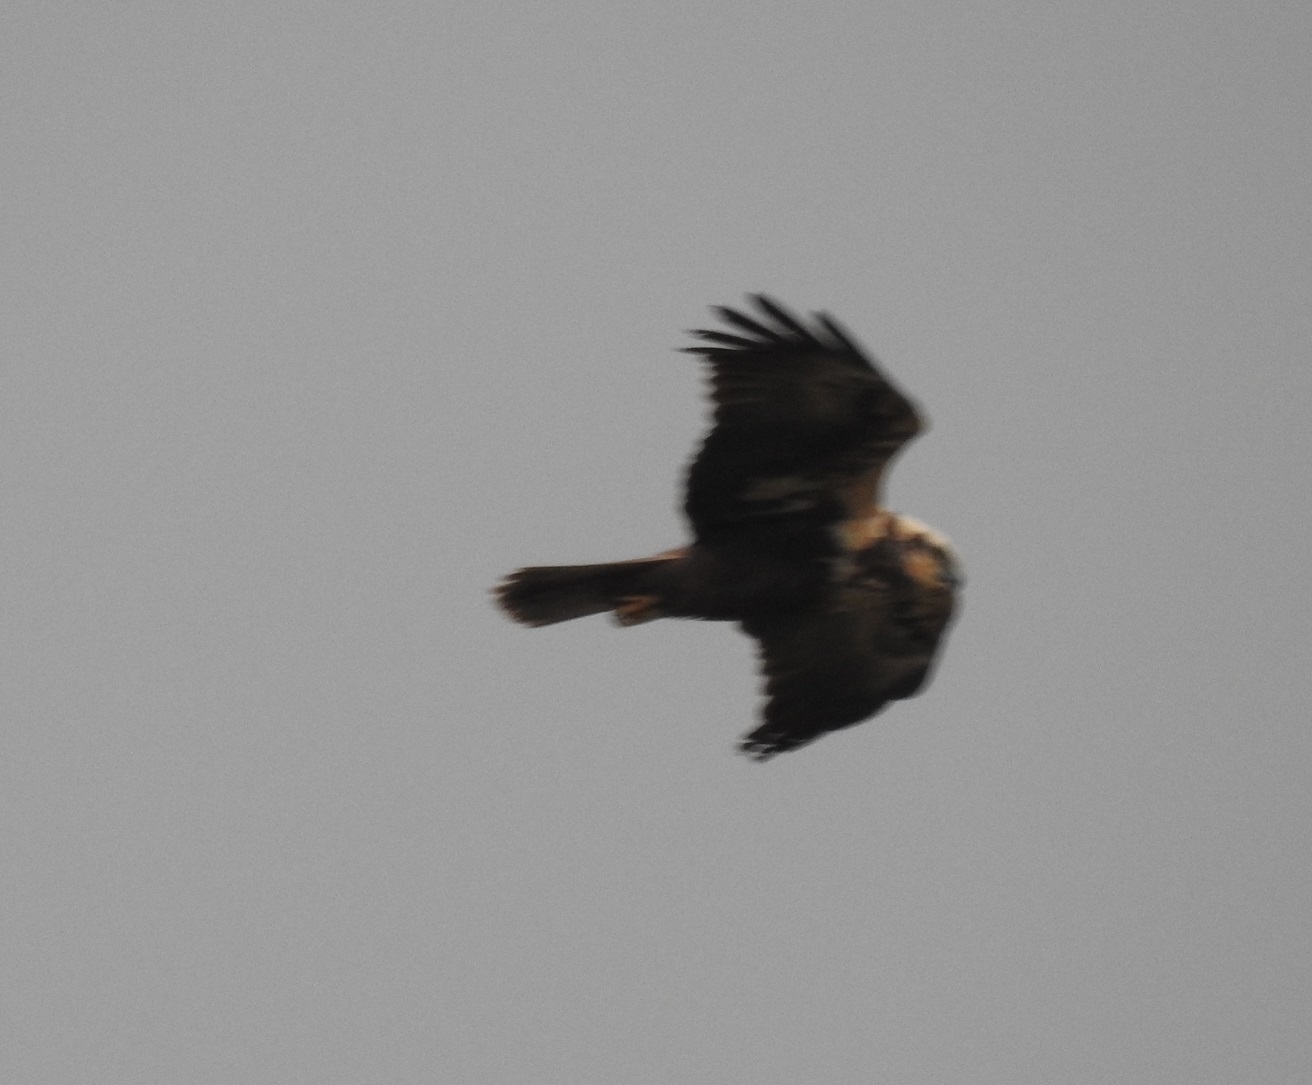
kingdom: Animalia
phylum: Chordata
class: Aves
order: Accipitriformes
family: Accipitridae
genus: Circus
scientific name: Circus aeruginosus
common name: Western marsh harrier
